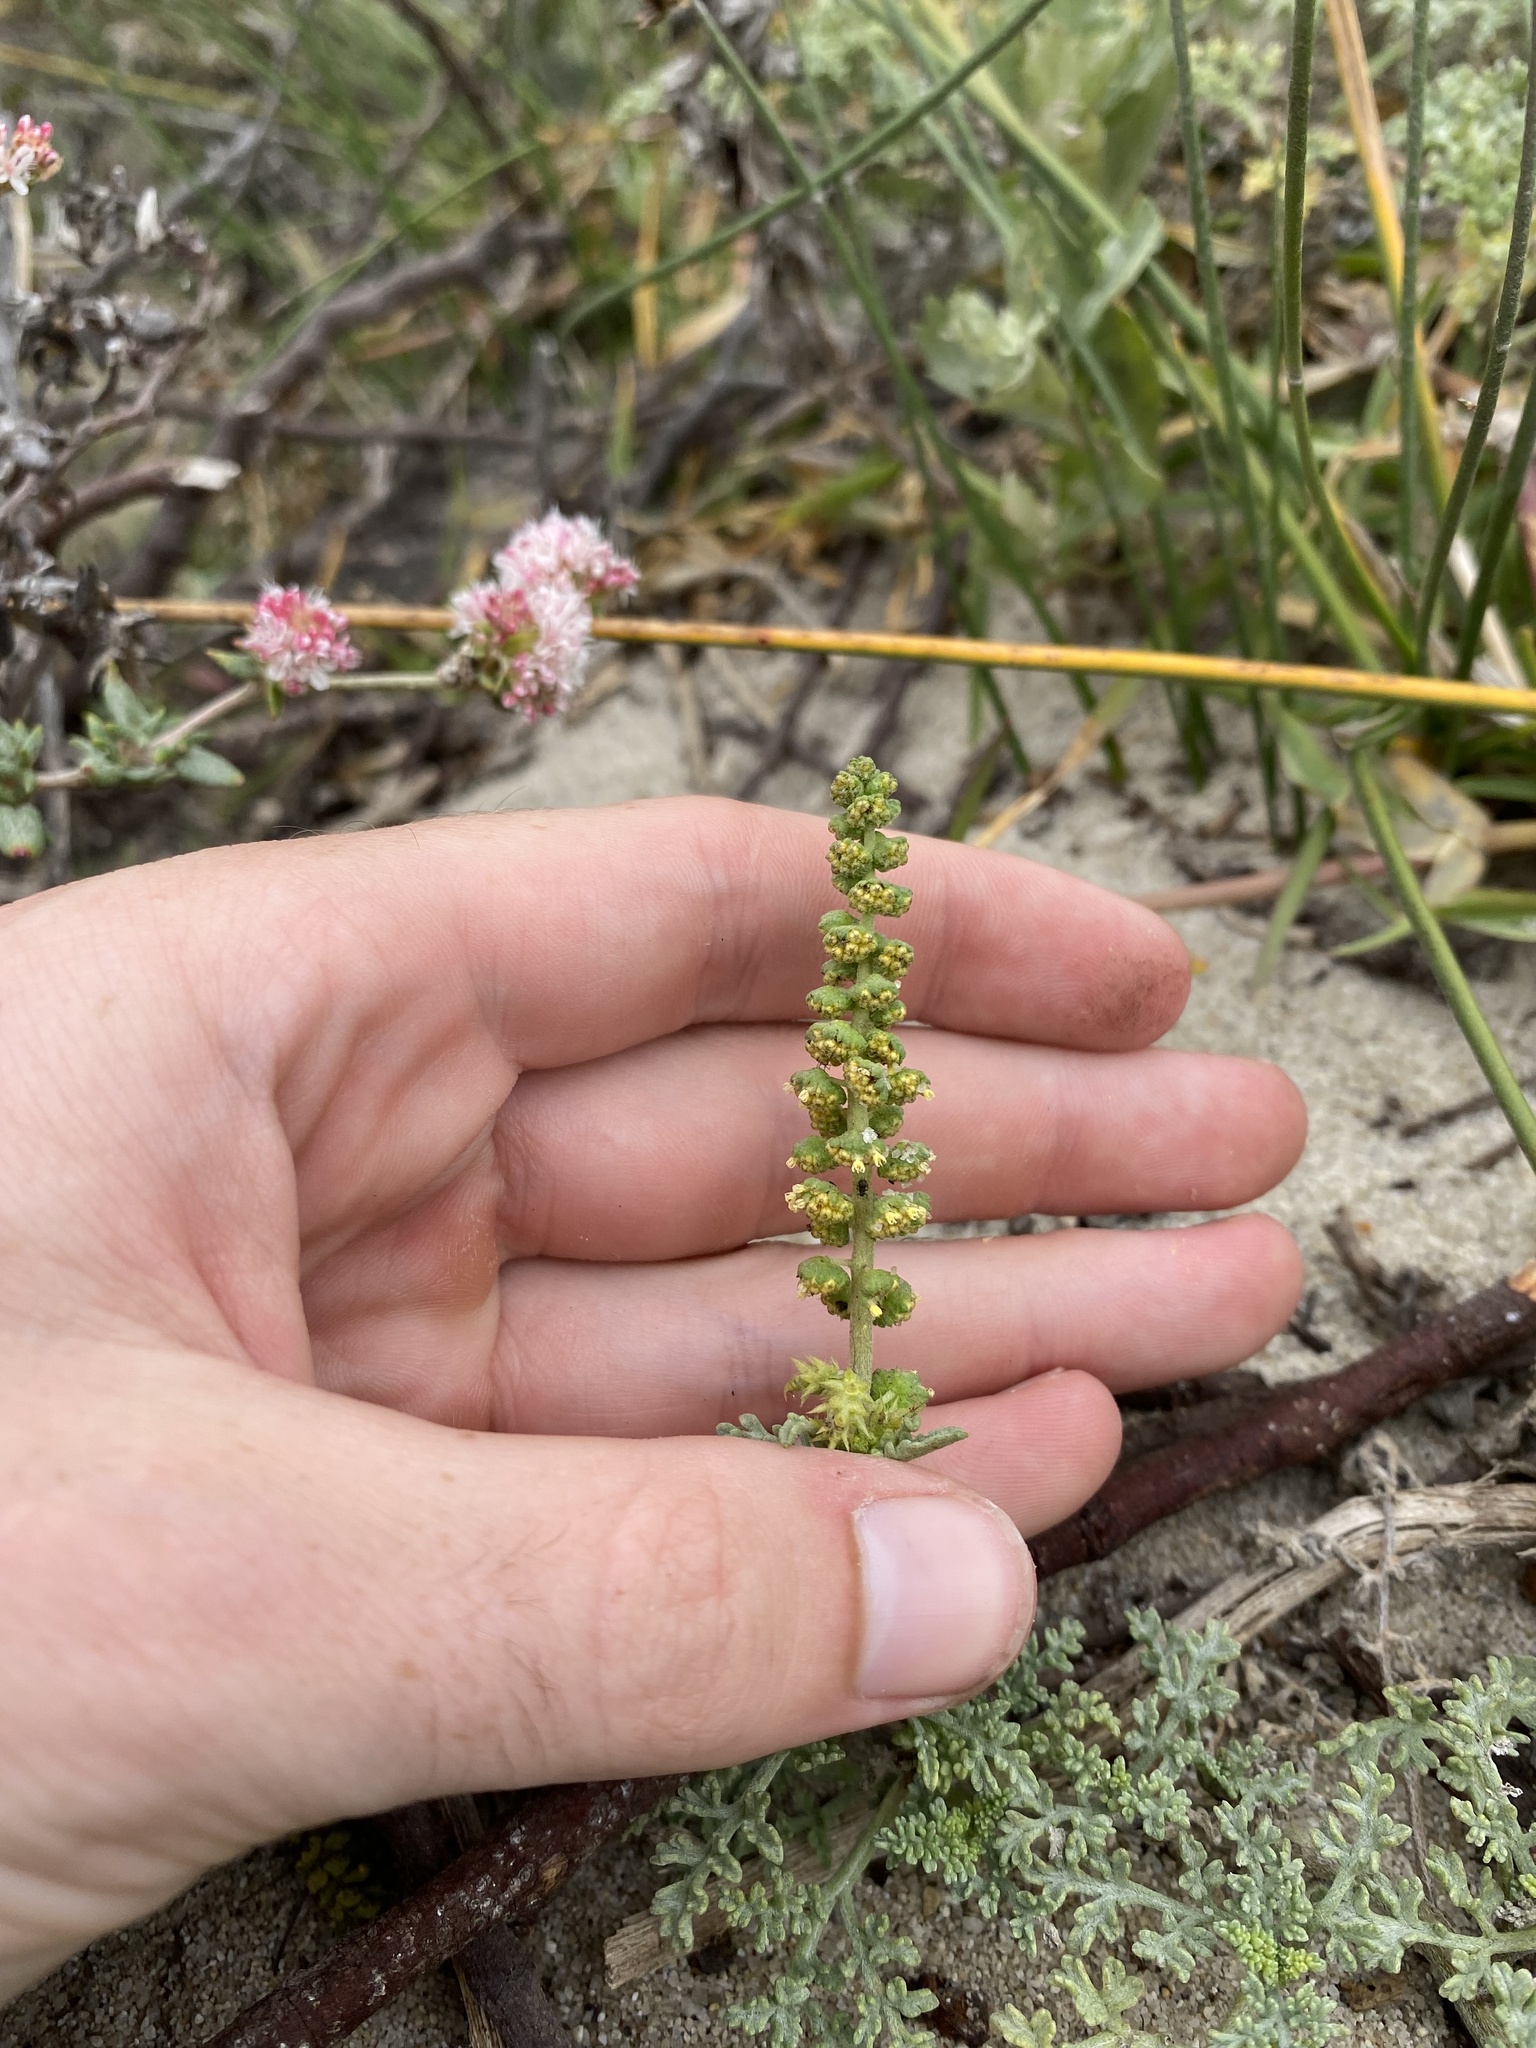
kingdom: Plantae
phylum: Tracheophyta
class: Magnoliopsida
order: Asterales
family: Asteraceae
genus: Ambrosia
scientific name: Ambrosia chamissonis
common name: Beachbur
